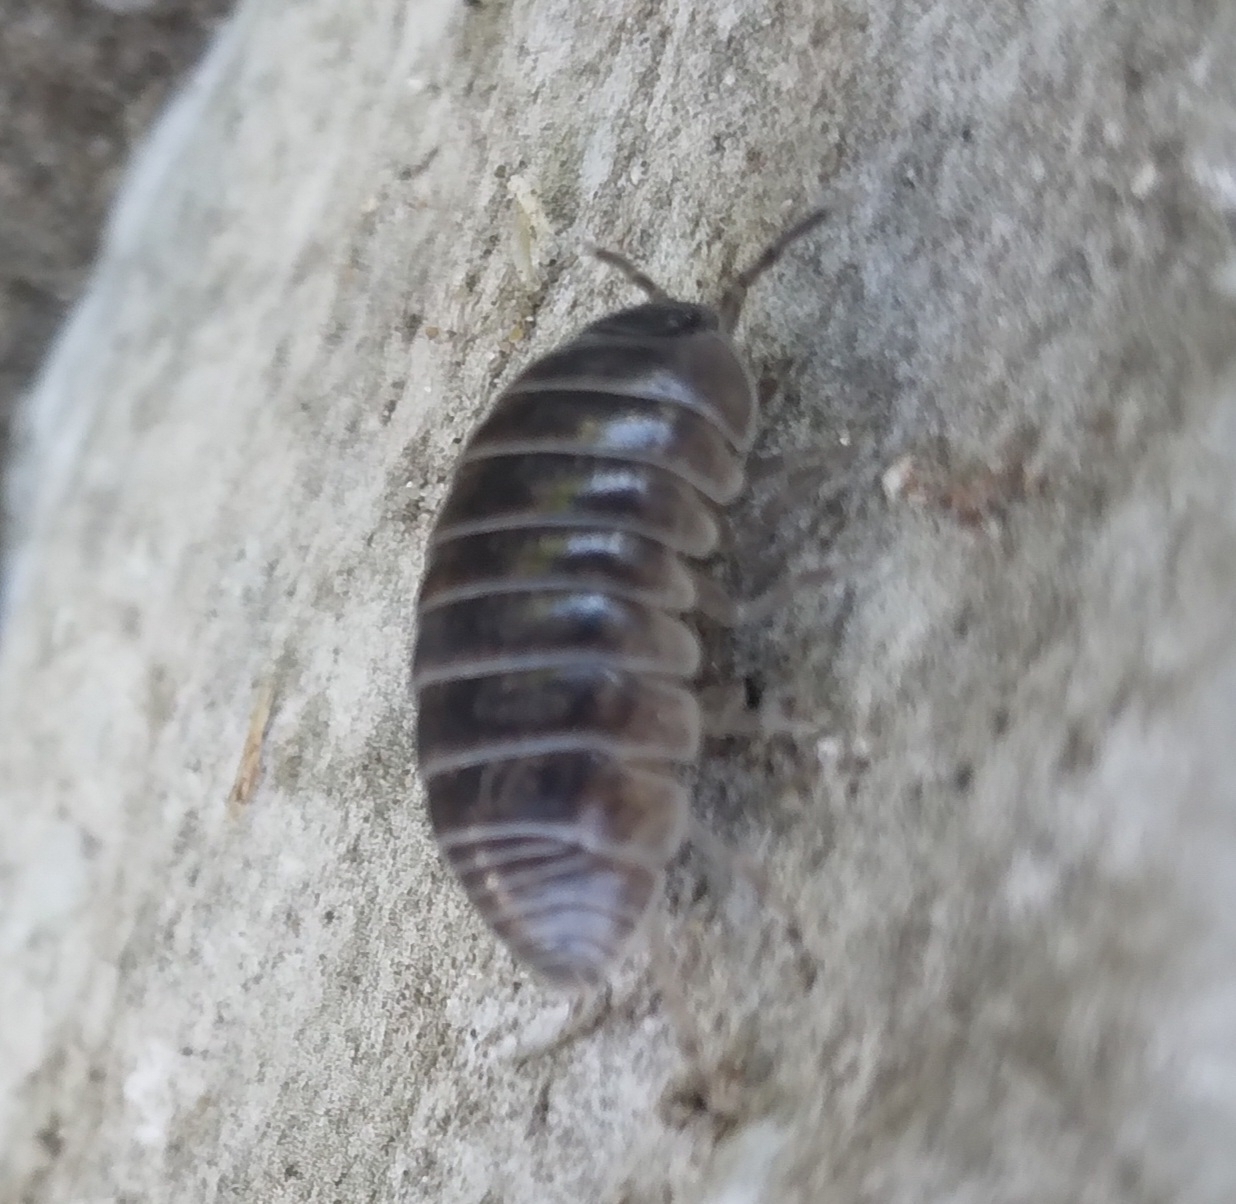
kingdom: Animalia
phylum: Arthropoda
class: Malacostraca
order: Isopoda
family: Armadillidiidae
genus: Armadillidium
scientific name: Armadillidium vulgare
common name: Common pill woodlouse
